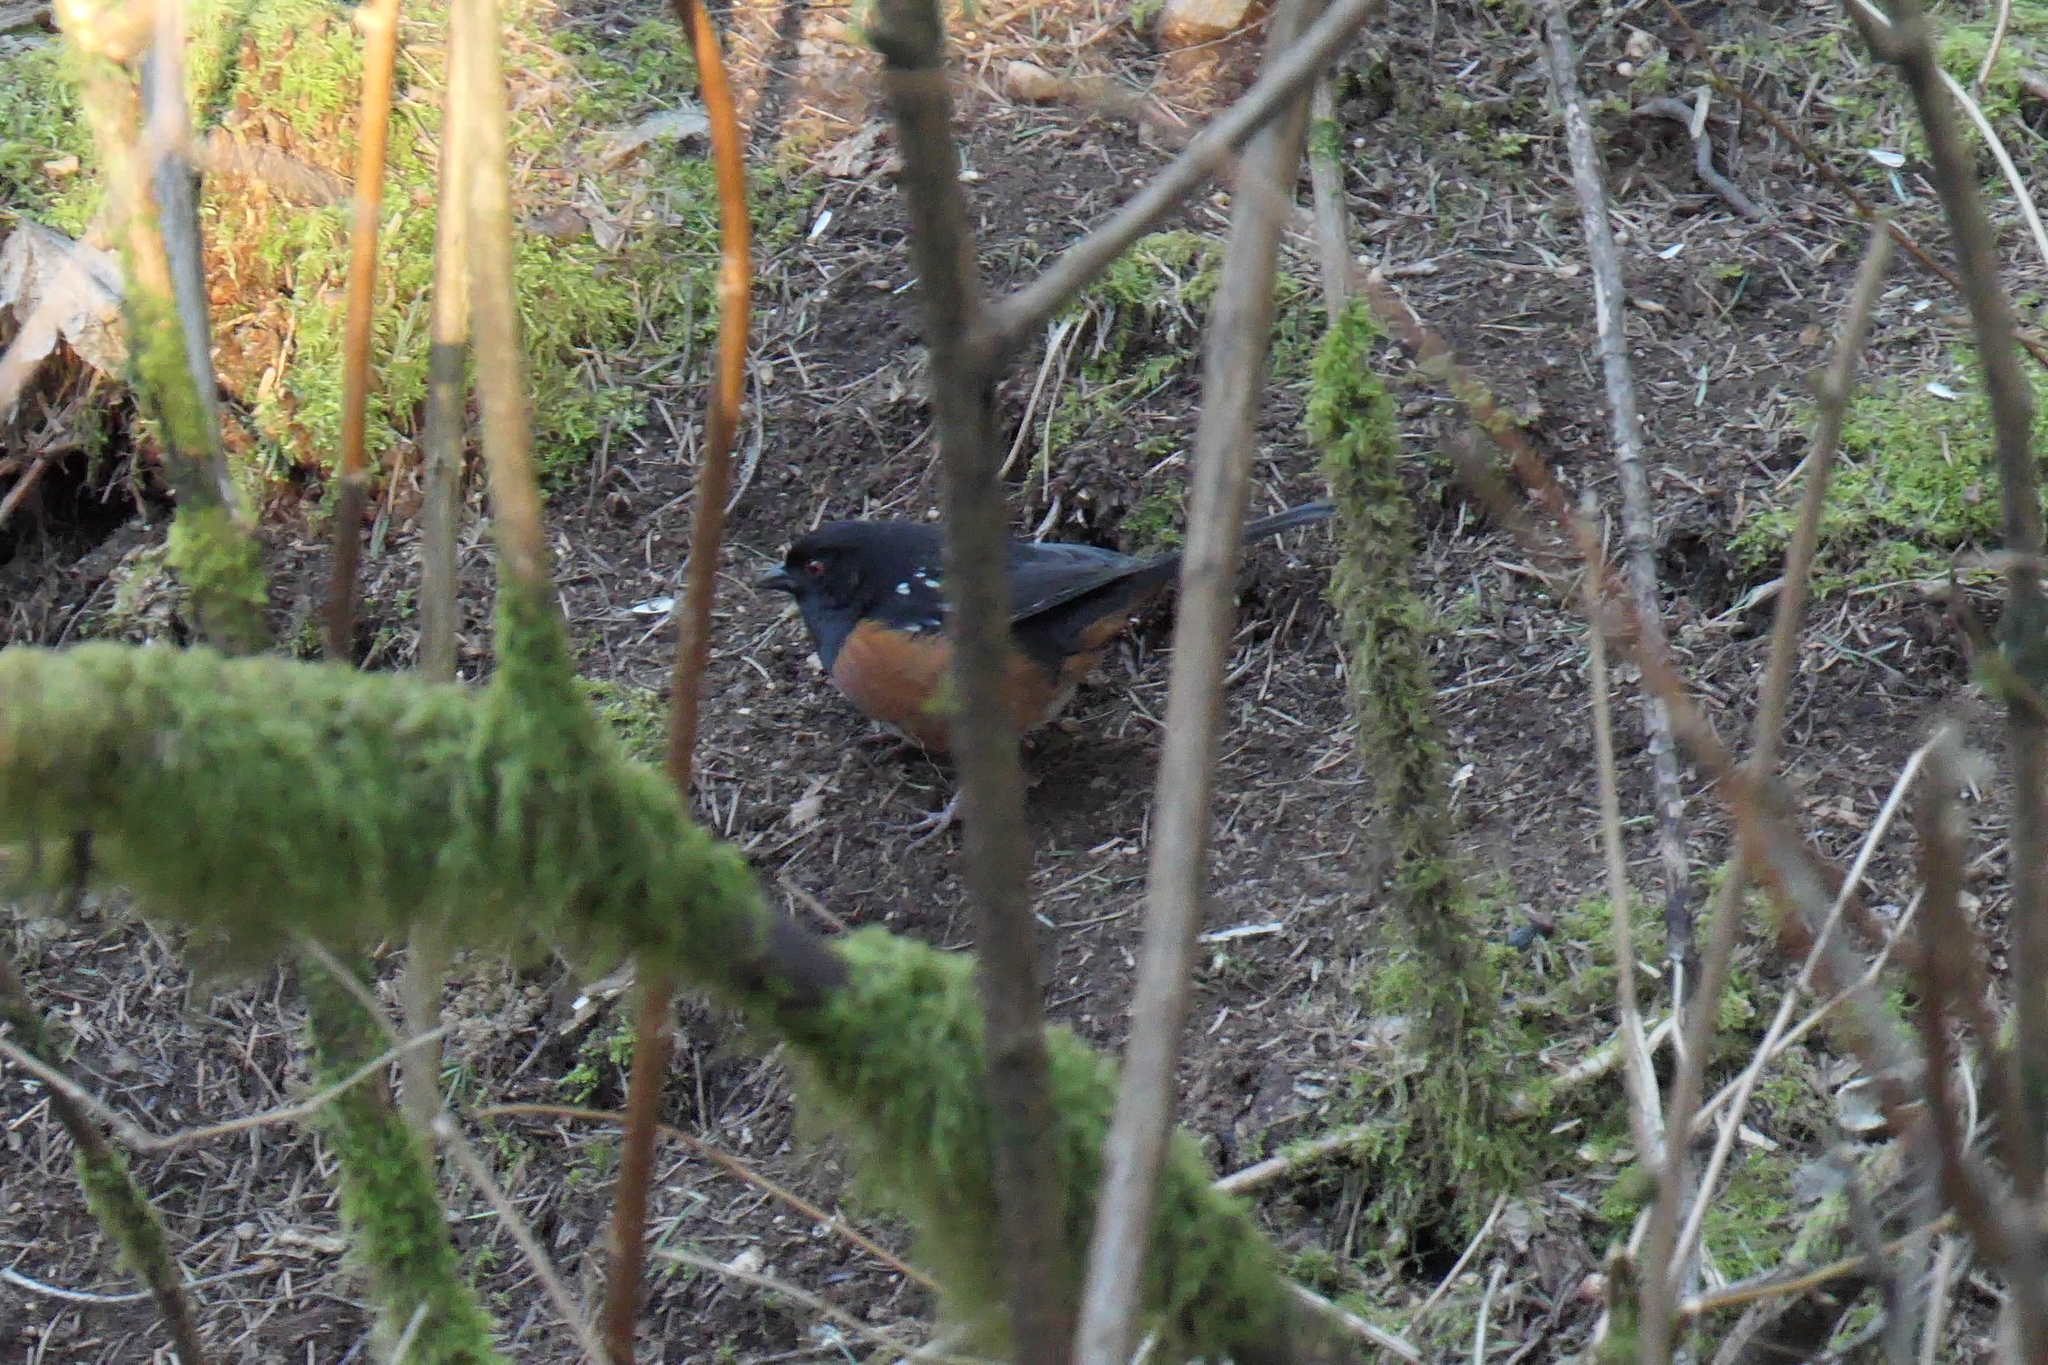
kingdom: Animalia
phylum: Chordata
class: Aves
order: Passeriformes
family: Passerellidae
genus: Pipilo
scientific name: Pipilo maculatus
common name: Spotted towhee
